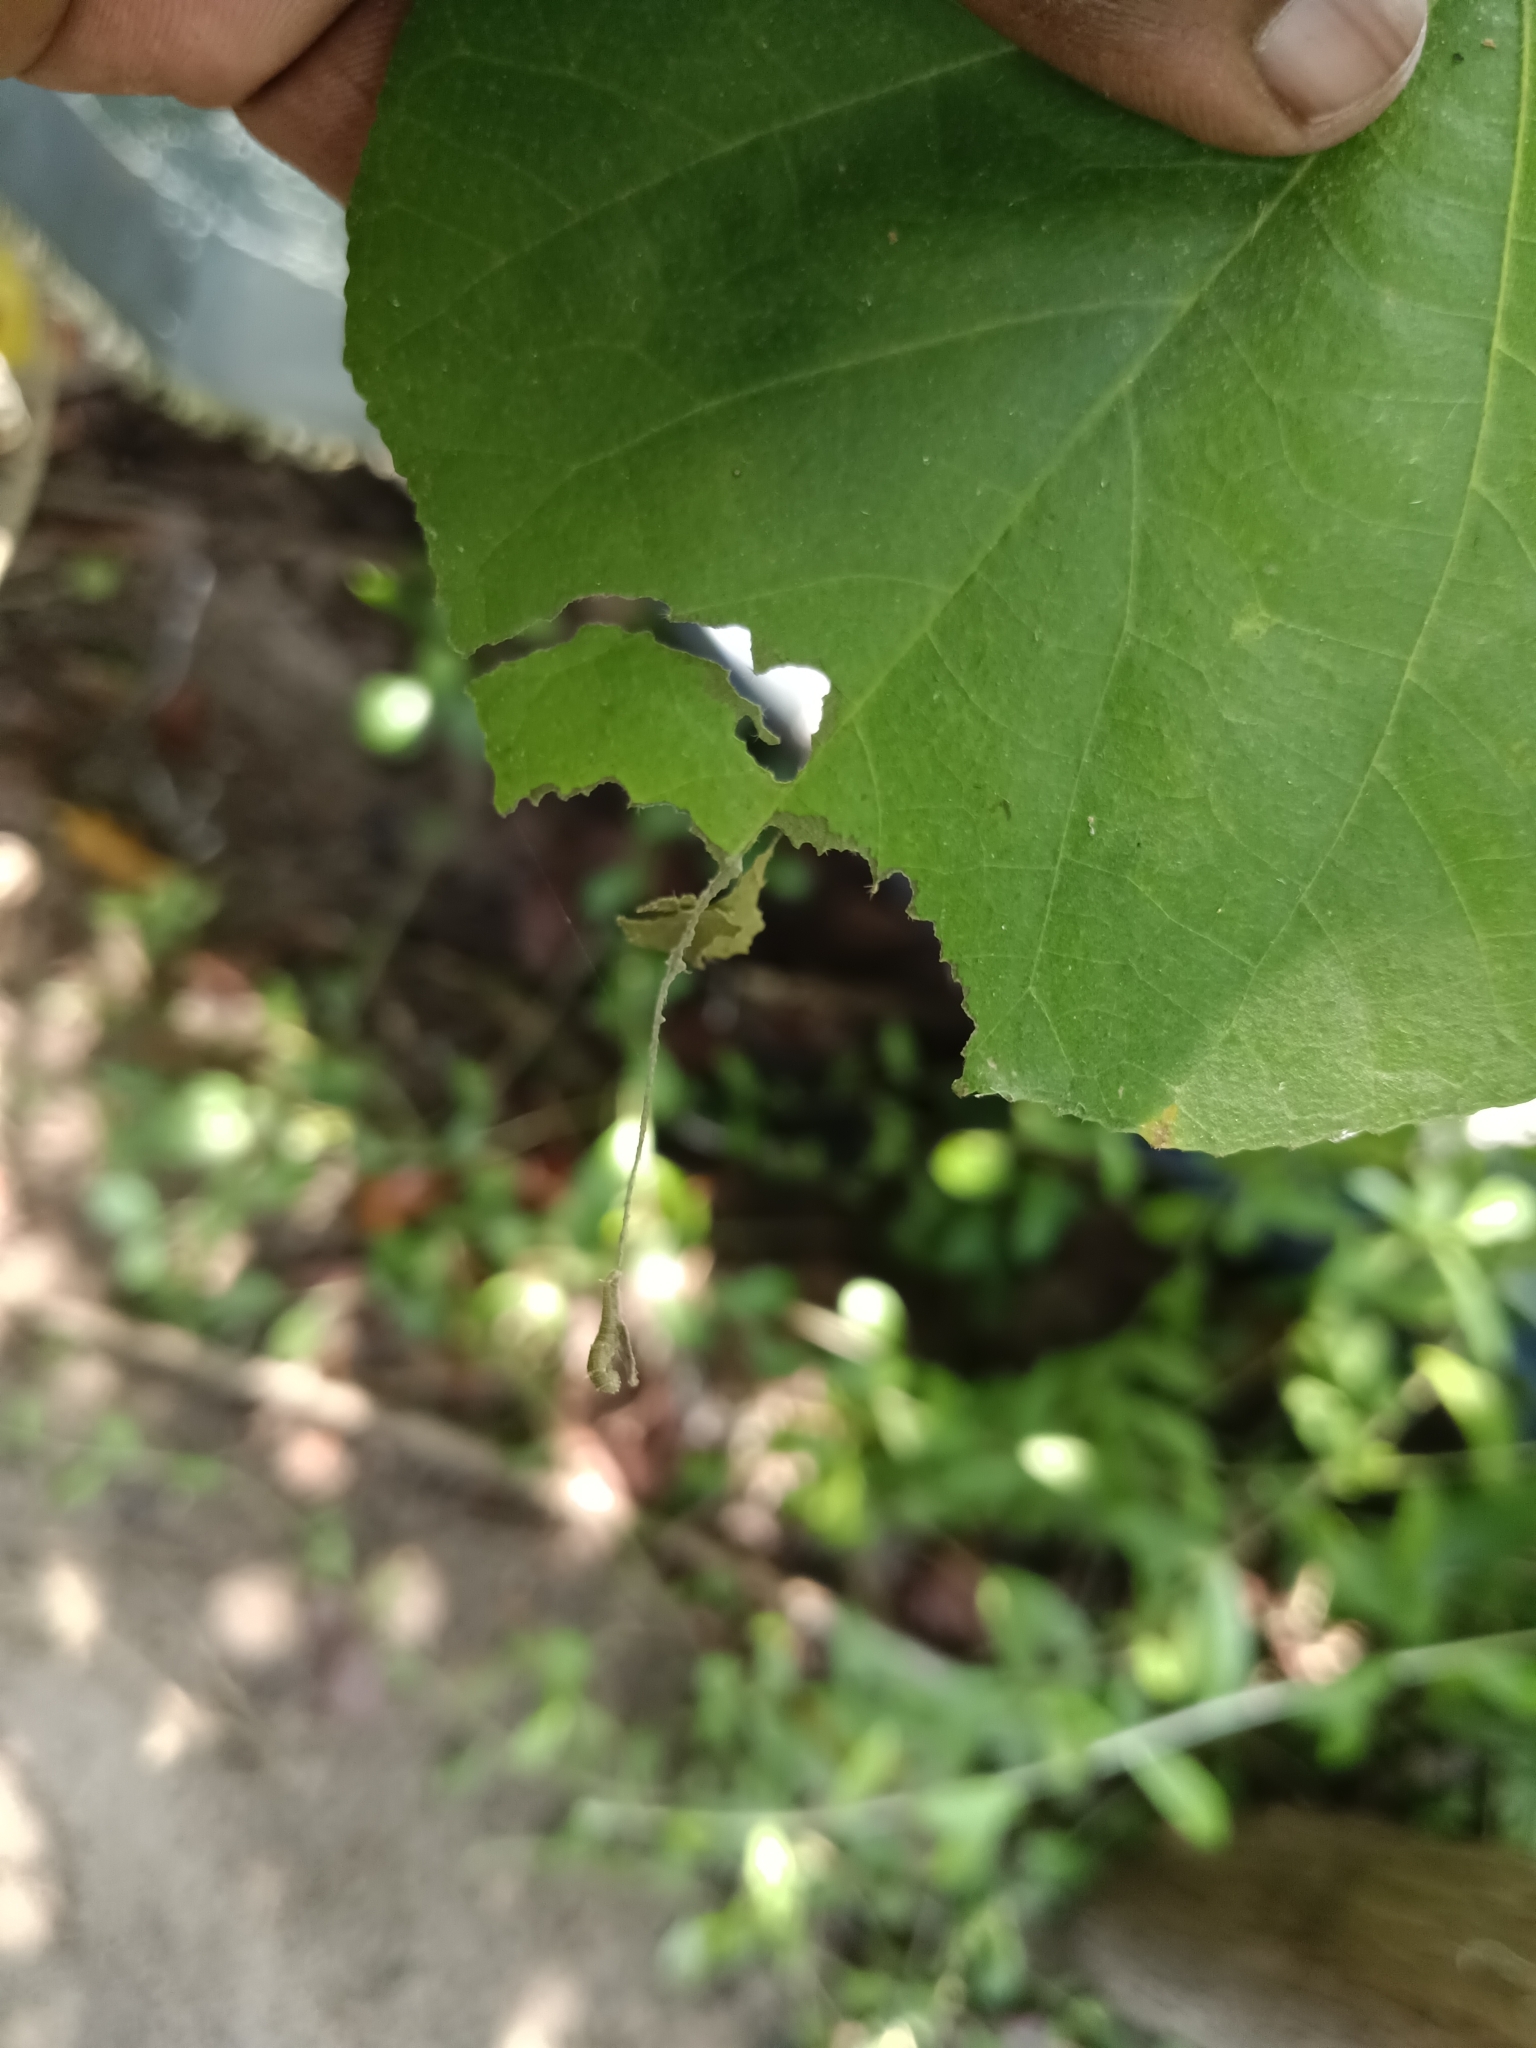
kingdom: Animalia
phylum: Arthropoda
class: Insecta
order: Lepidoptera
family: Nymphalidae
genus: Neptis
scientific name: Neptis jumbah
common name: Chestnut-streaked sailer
